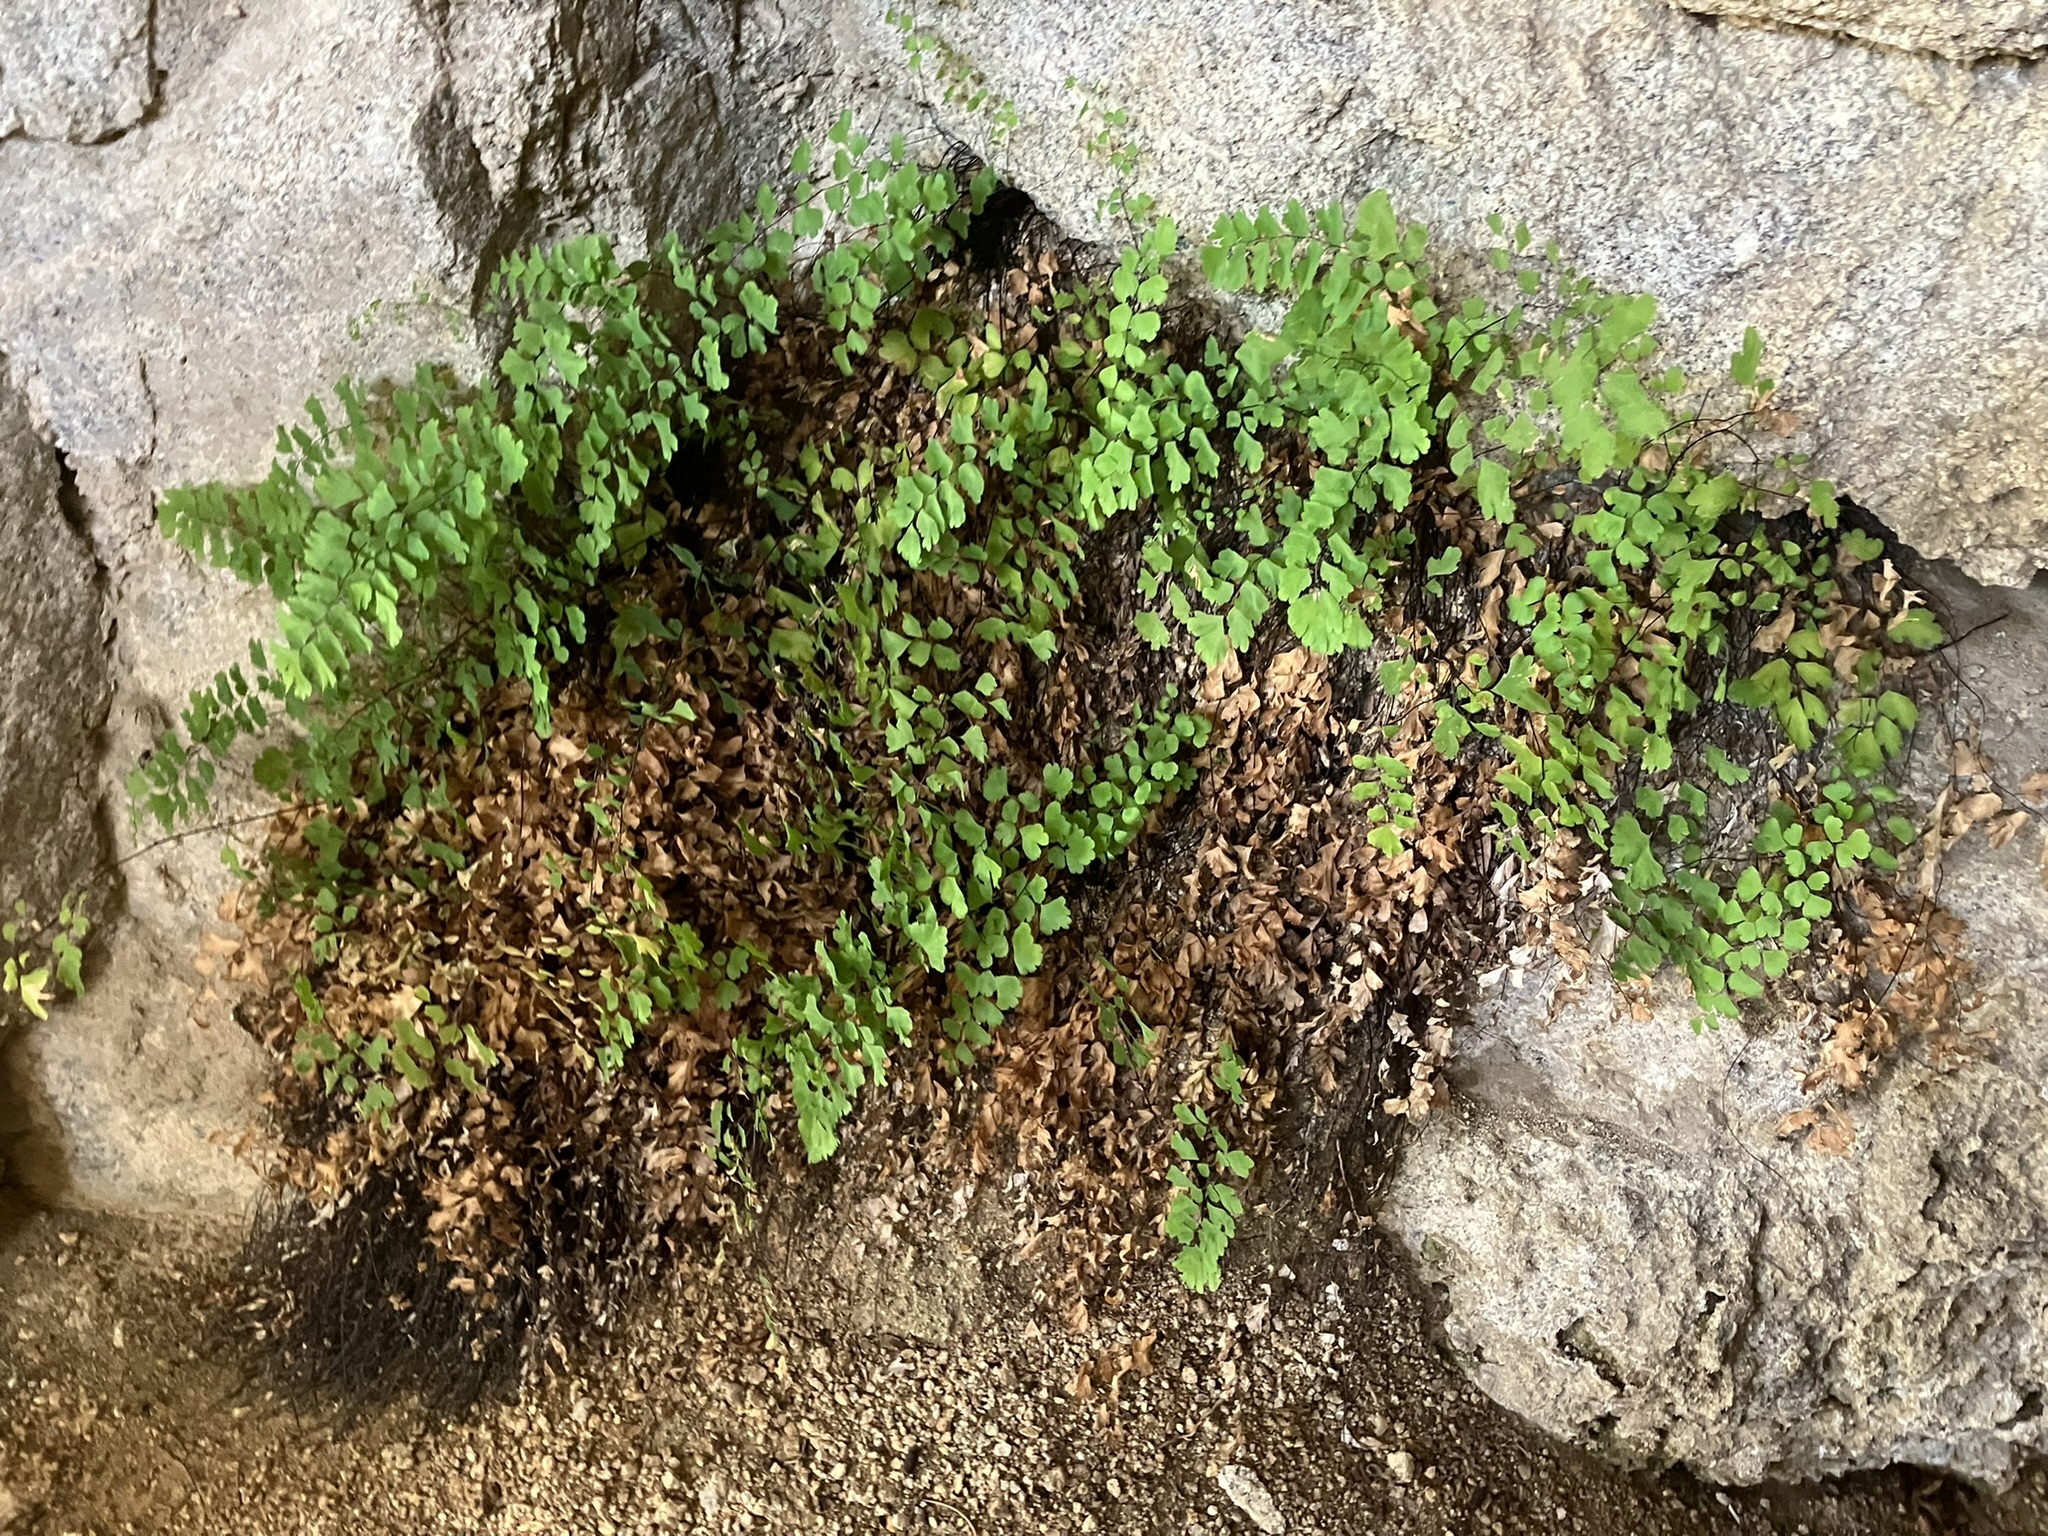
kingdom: Plantae
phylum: Tracheophyta
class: Polypodiopsida
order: Polypodiales
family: Pteridaceae
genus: Adiantum
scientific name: Adiantum capillus-veneris
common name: Maidenhair fern
